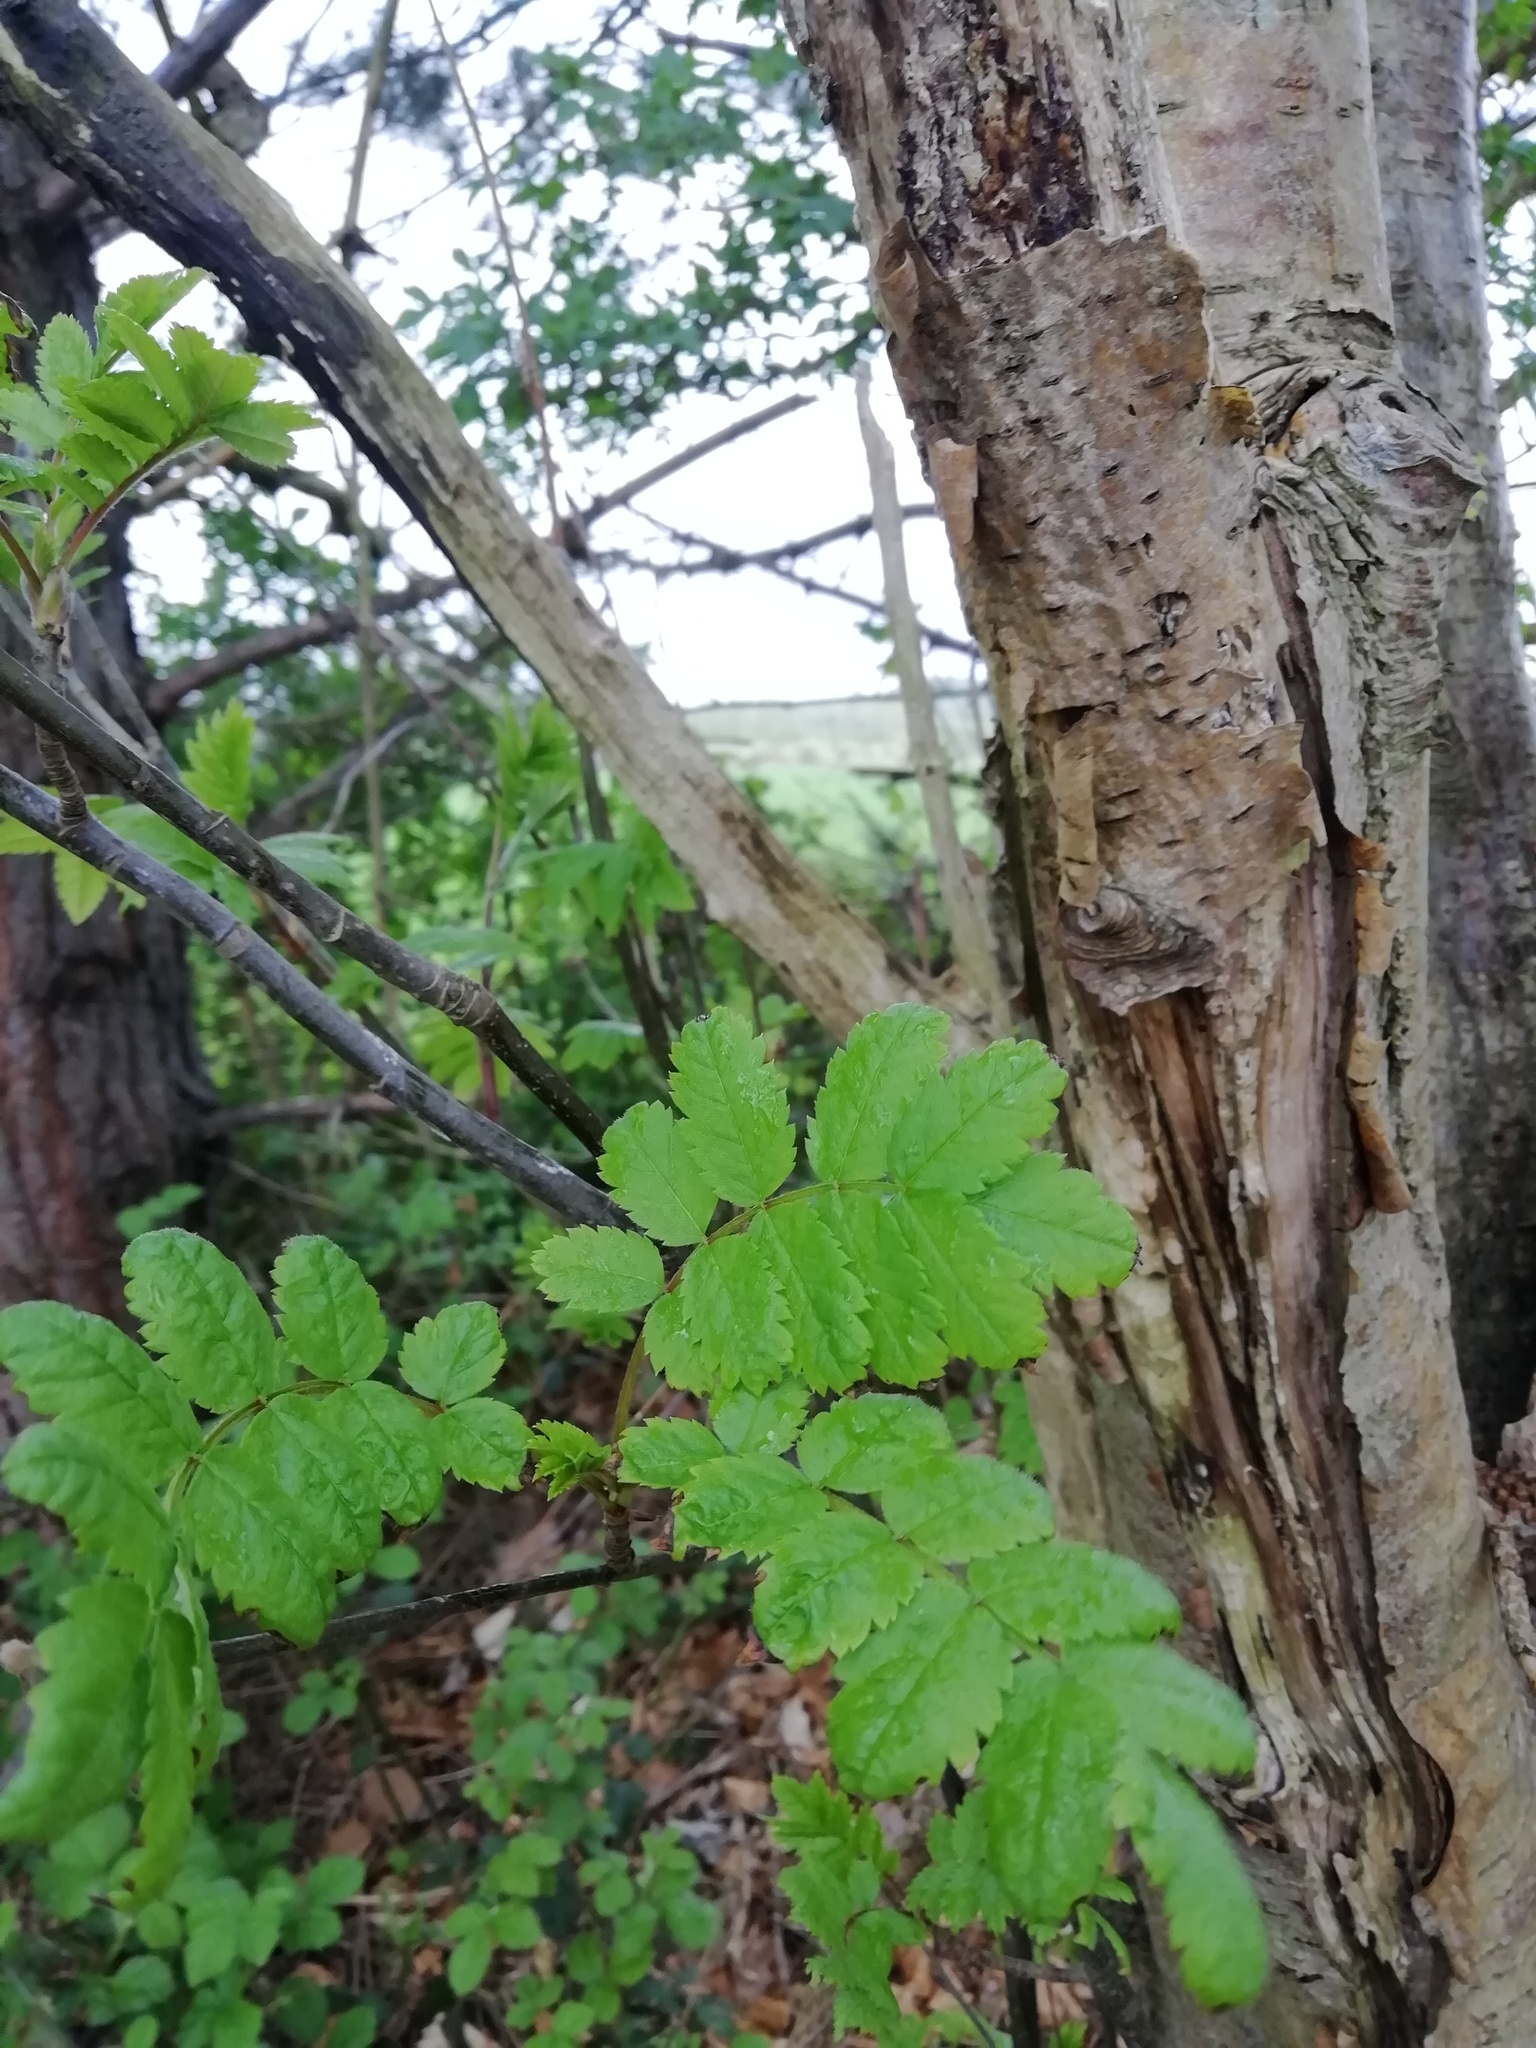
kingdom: Plantae
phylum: Tracheophyta
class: Magnoliopsida
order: Rosales
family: Rosaceae
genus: Sorbus
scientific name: Sorbus aucuparia
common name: Rowan
